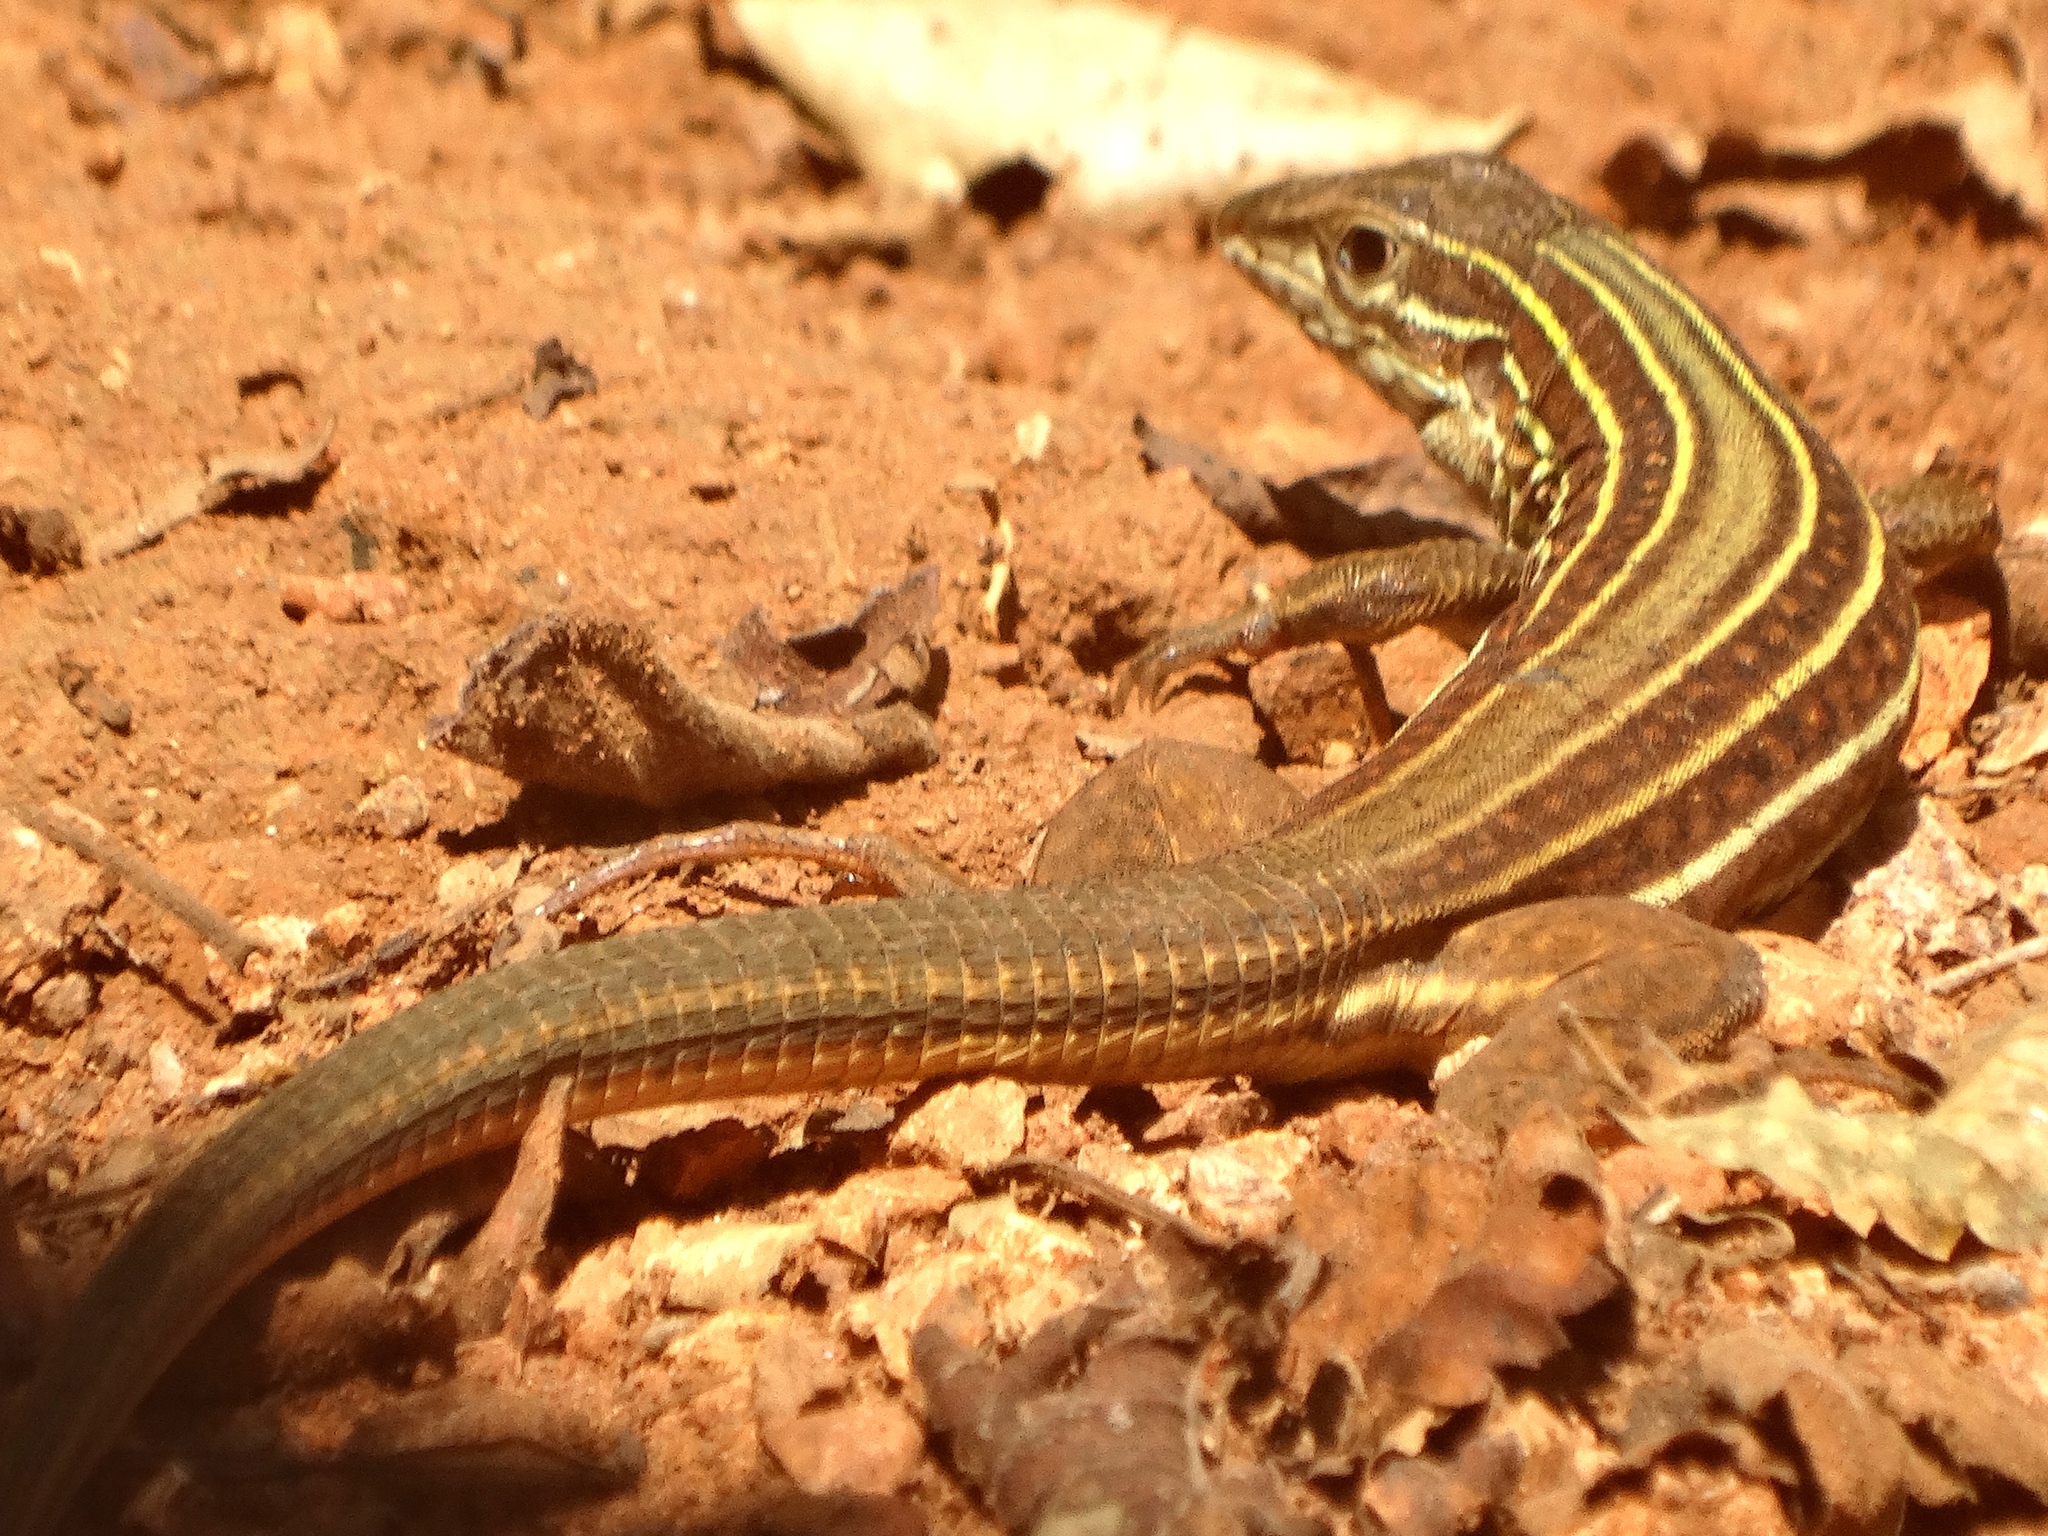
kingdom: Animalia
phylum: Chordata
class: Squamata
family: Teiidae
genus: Aspidoscelis
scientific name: Aspidoscelis costatus
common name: Western mexico whiptail
